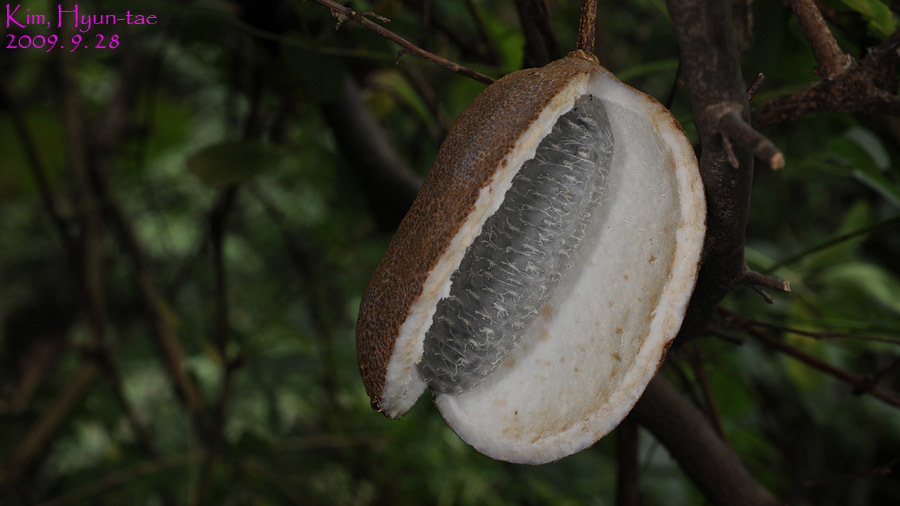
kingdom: Plantae
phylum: Tracheophyta
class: Magnoliopsida
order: Ranunculales
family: Lardizabalaceae
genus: Akebia
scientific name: Akebia quinata
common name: Five-leaf akebia
